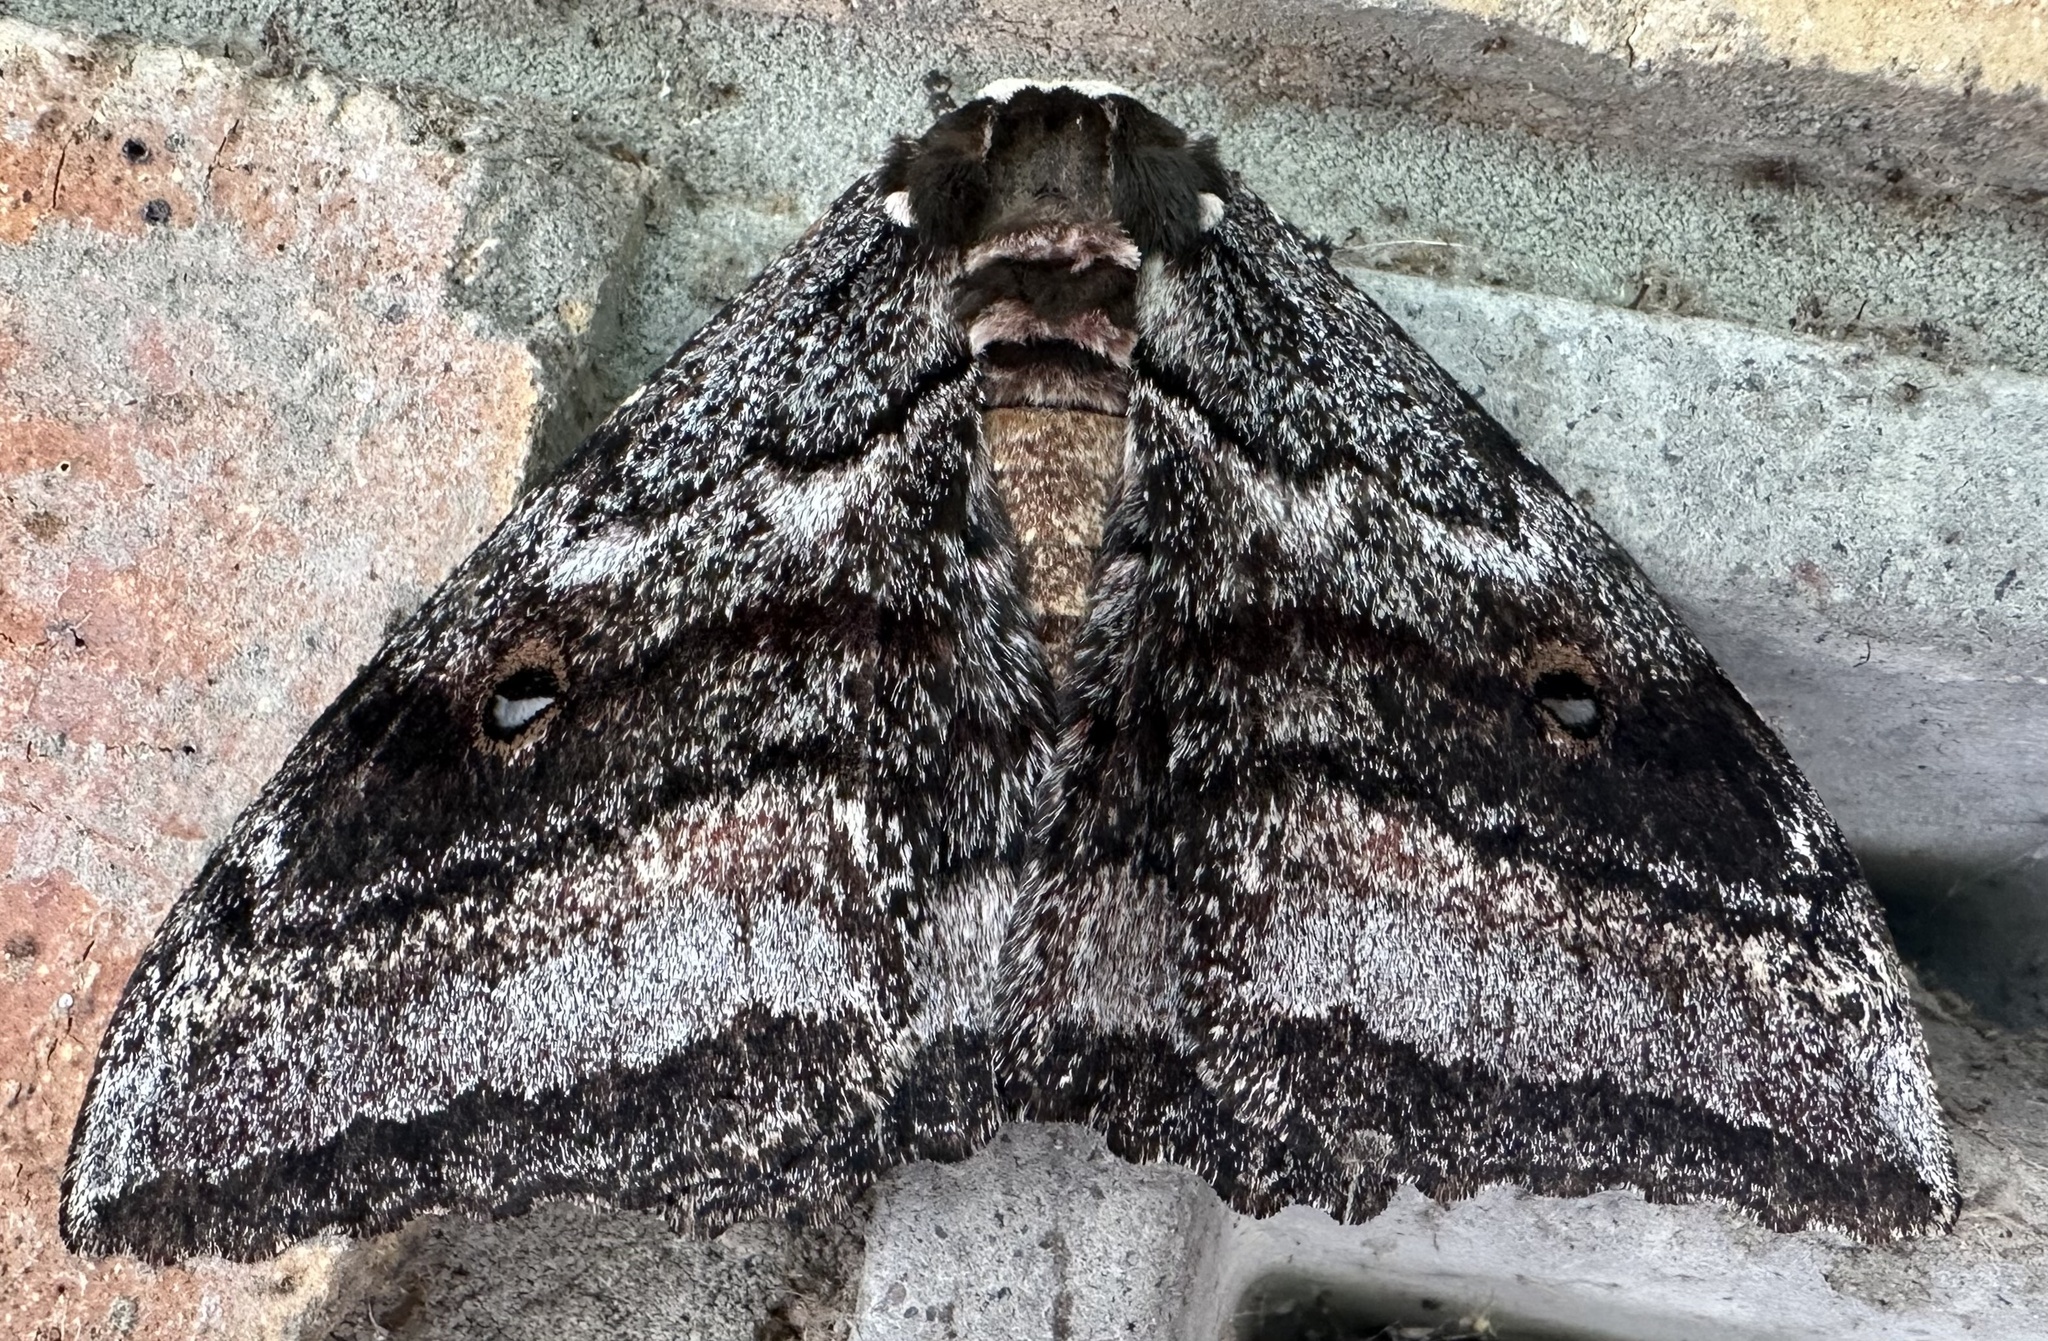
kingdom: Animalia
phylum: Arthropoda
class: Insecta
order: Lepidoptera
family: Saturniidae
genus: Gynanisa
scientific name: Gynanisa maja
